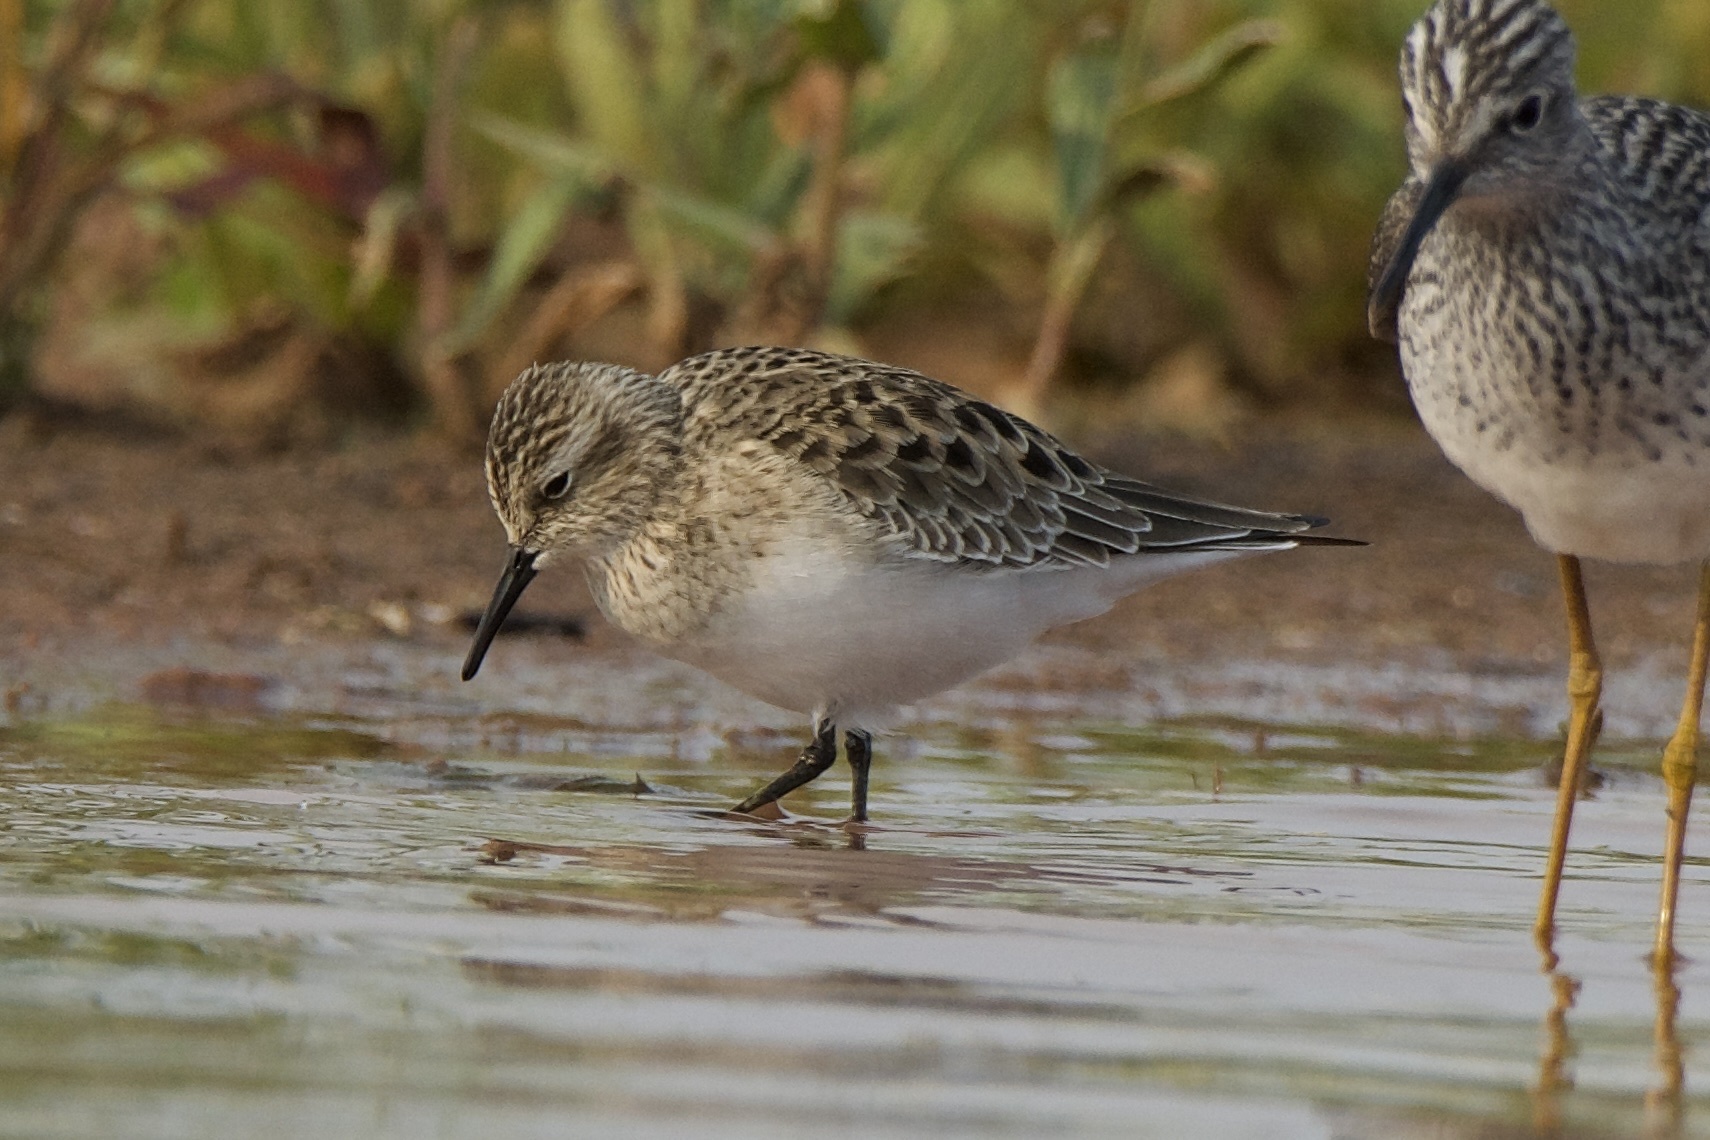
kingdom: Animalia
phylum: Chordata
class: Aves
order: Charadriiformes
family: Scolopacidae
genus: Calidris
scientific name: Calidris bairdii
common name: Baird's sandpiper
